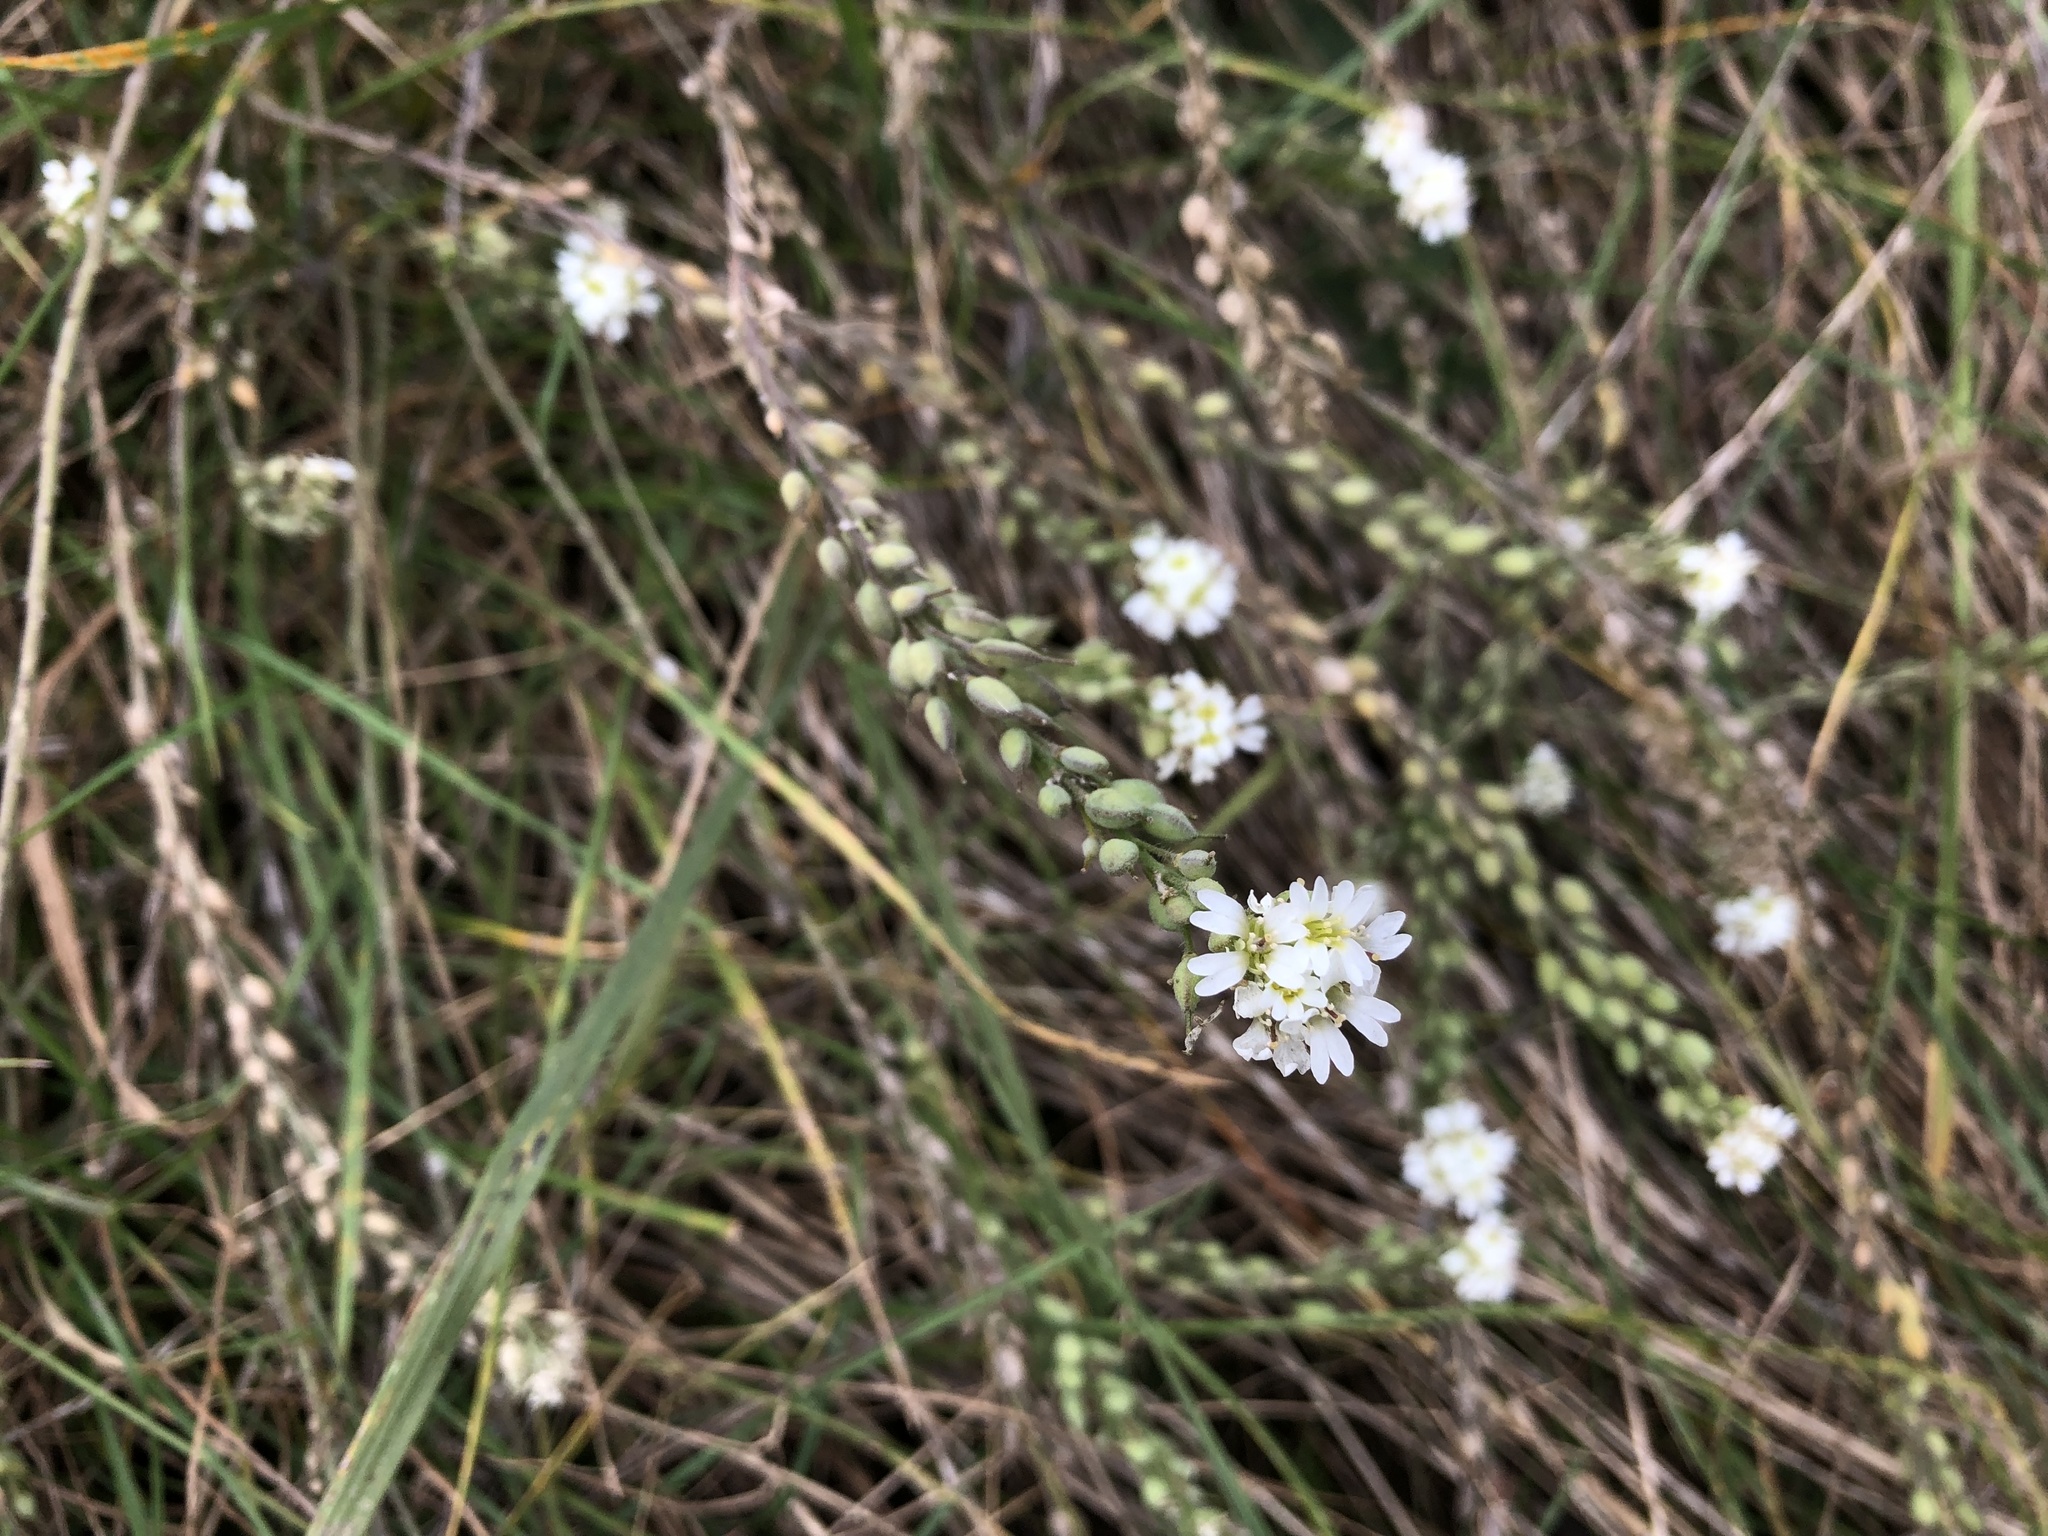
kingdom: Plantae
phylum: Tracheophyta
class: Magnoliopsida
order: Brassicales
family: Brassicaceae
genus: Berteroa
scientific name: Berteroa incana
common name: Hoary alison
